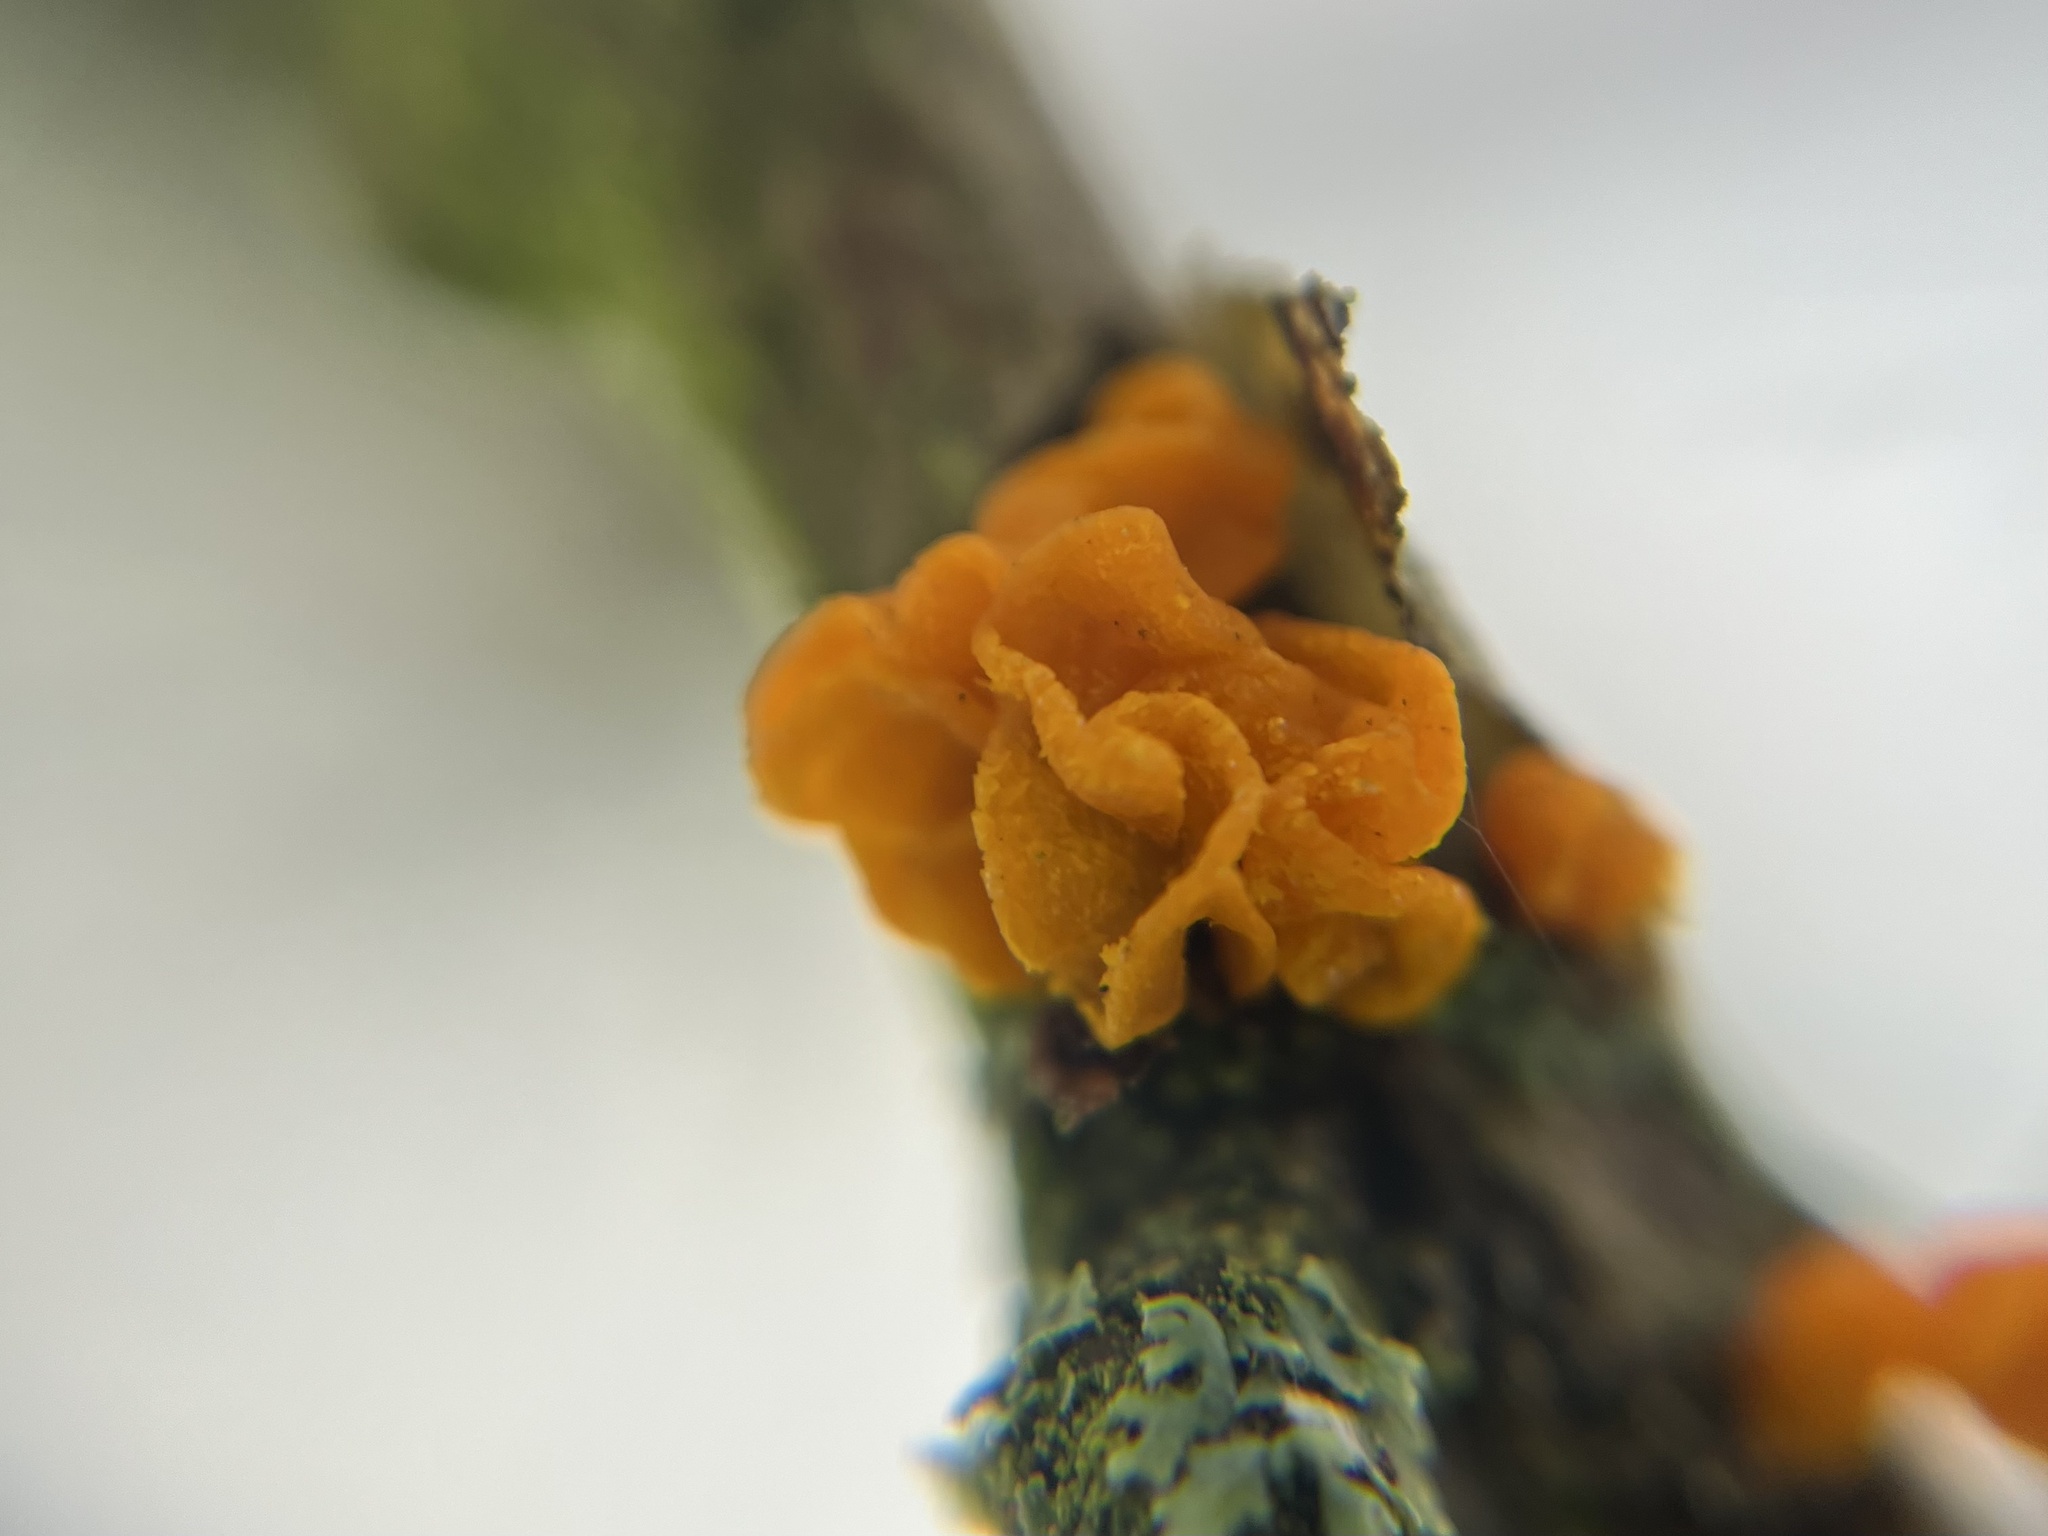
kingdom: Fungi
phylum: Basidiomycota
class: Tremellomycetes
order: Tremellales
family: Tremellaceae
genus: Tremella
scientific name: Tremella mesenterica
